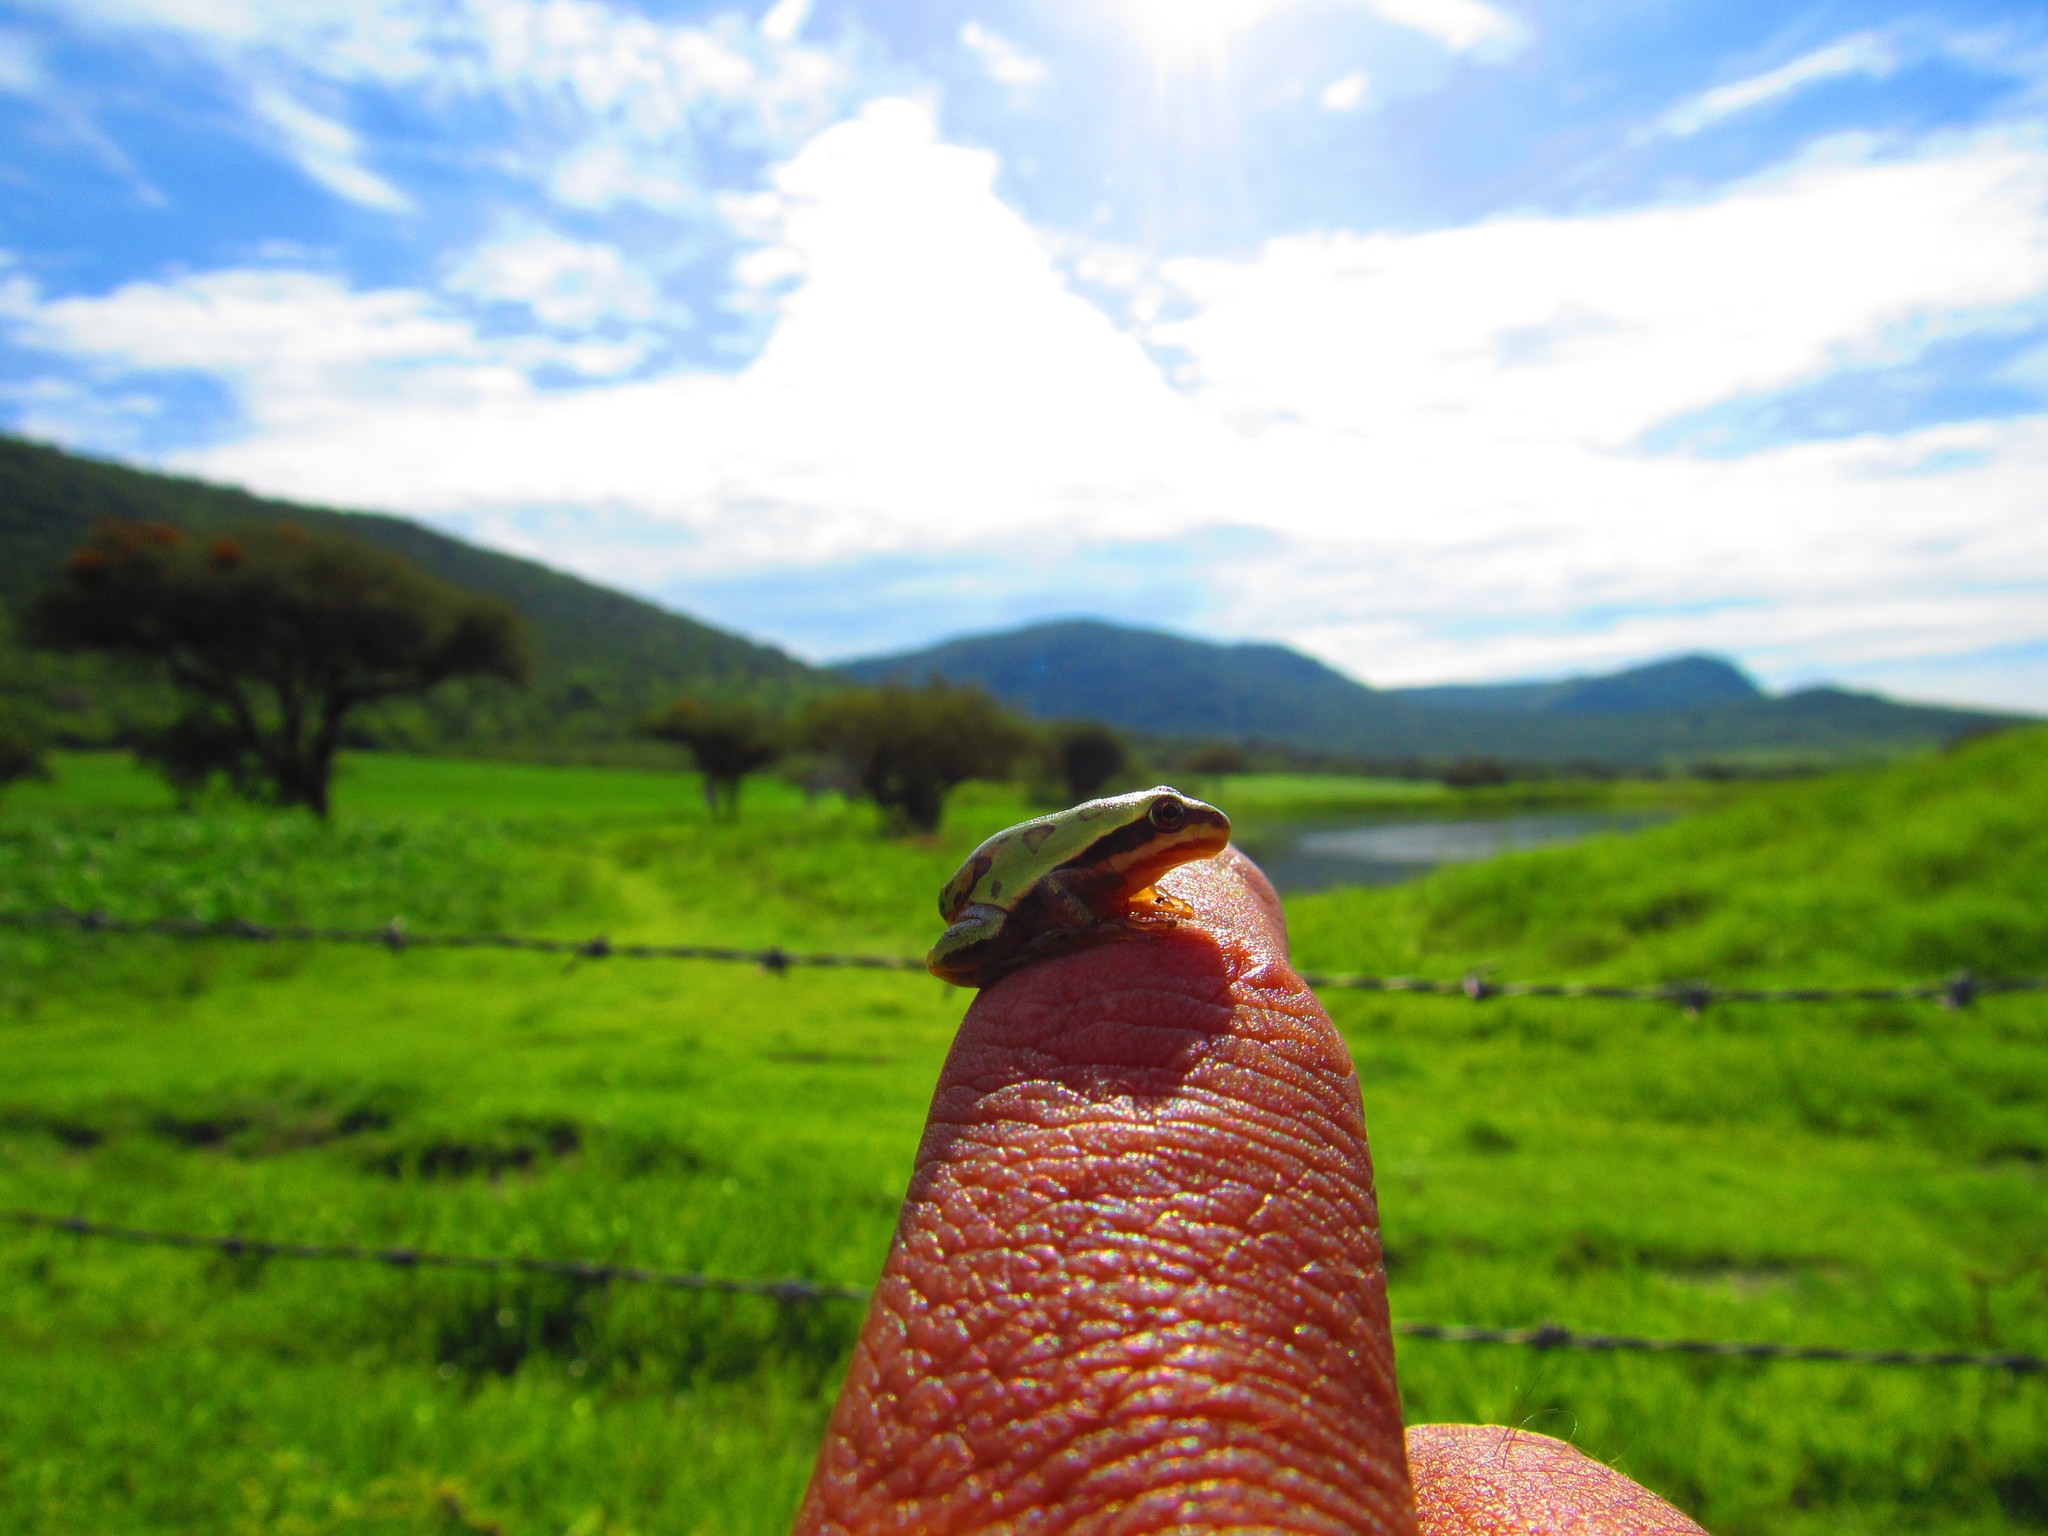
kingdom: Animalia
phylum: Chordata
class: Amphibia
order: Anura
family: Hylidae
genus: Dryophytes
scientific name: Dryophytes eximius
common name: Mountain treefrog
